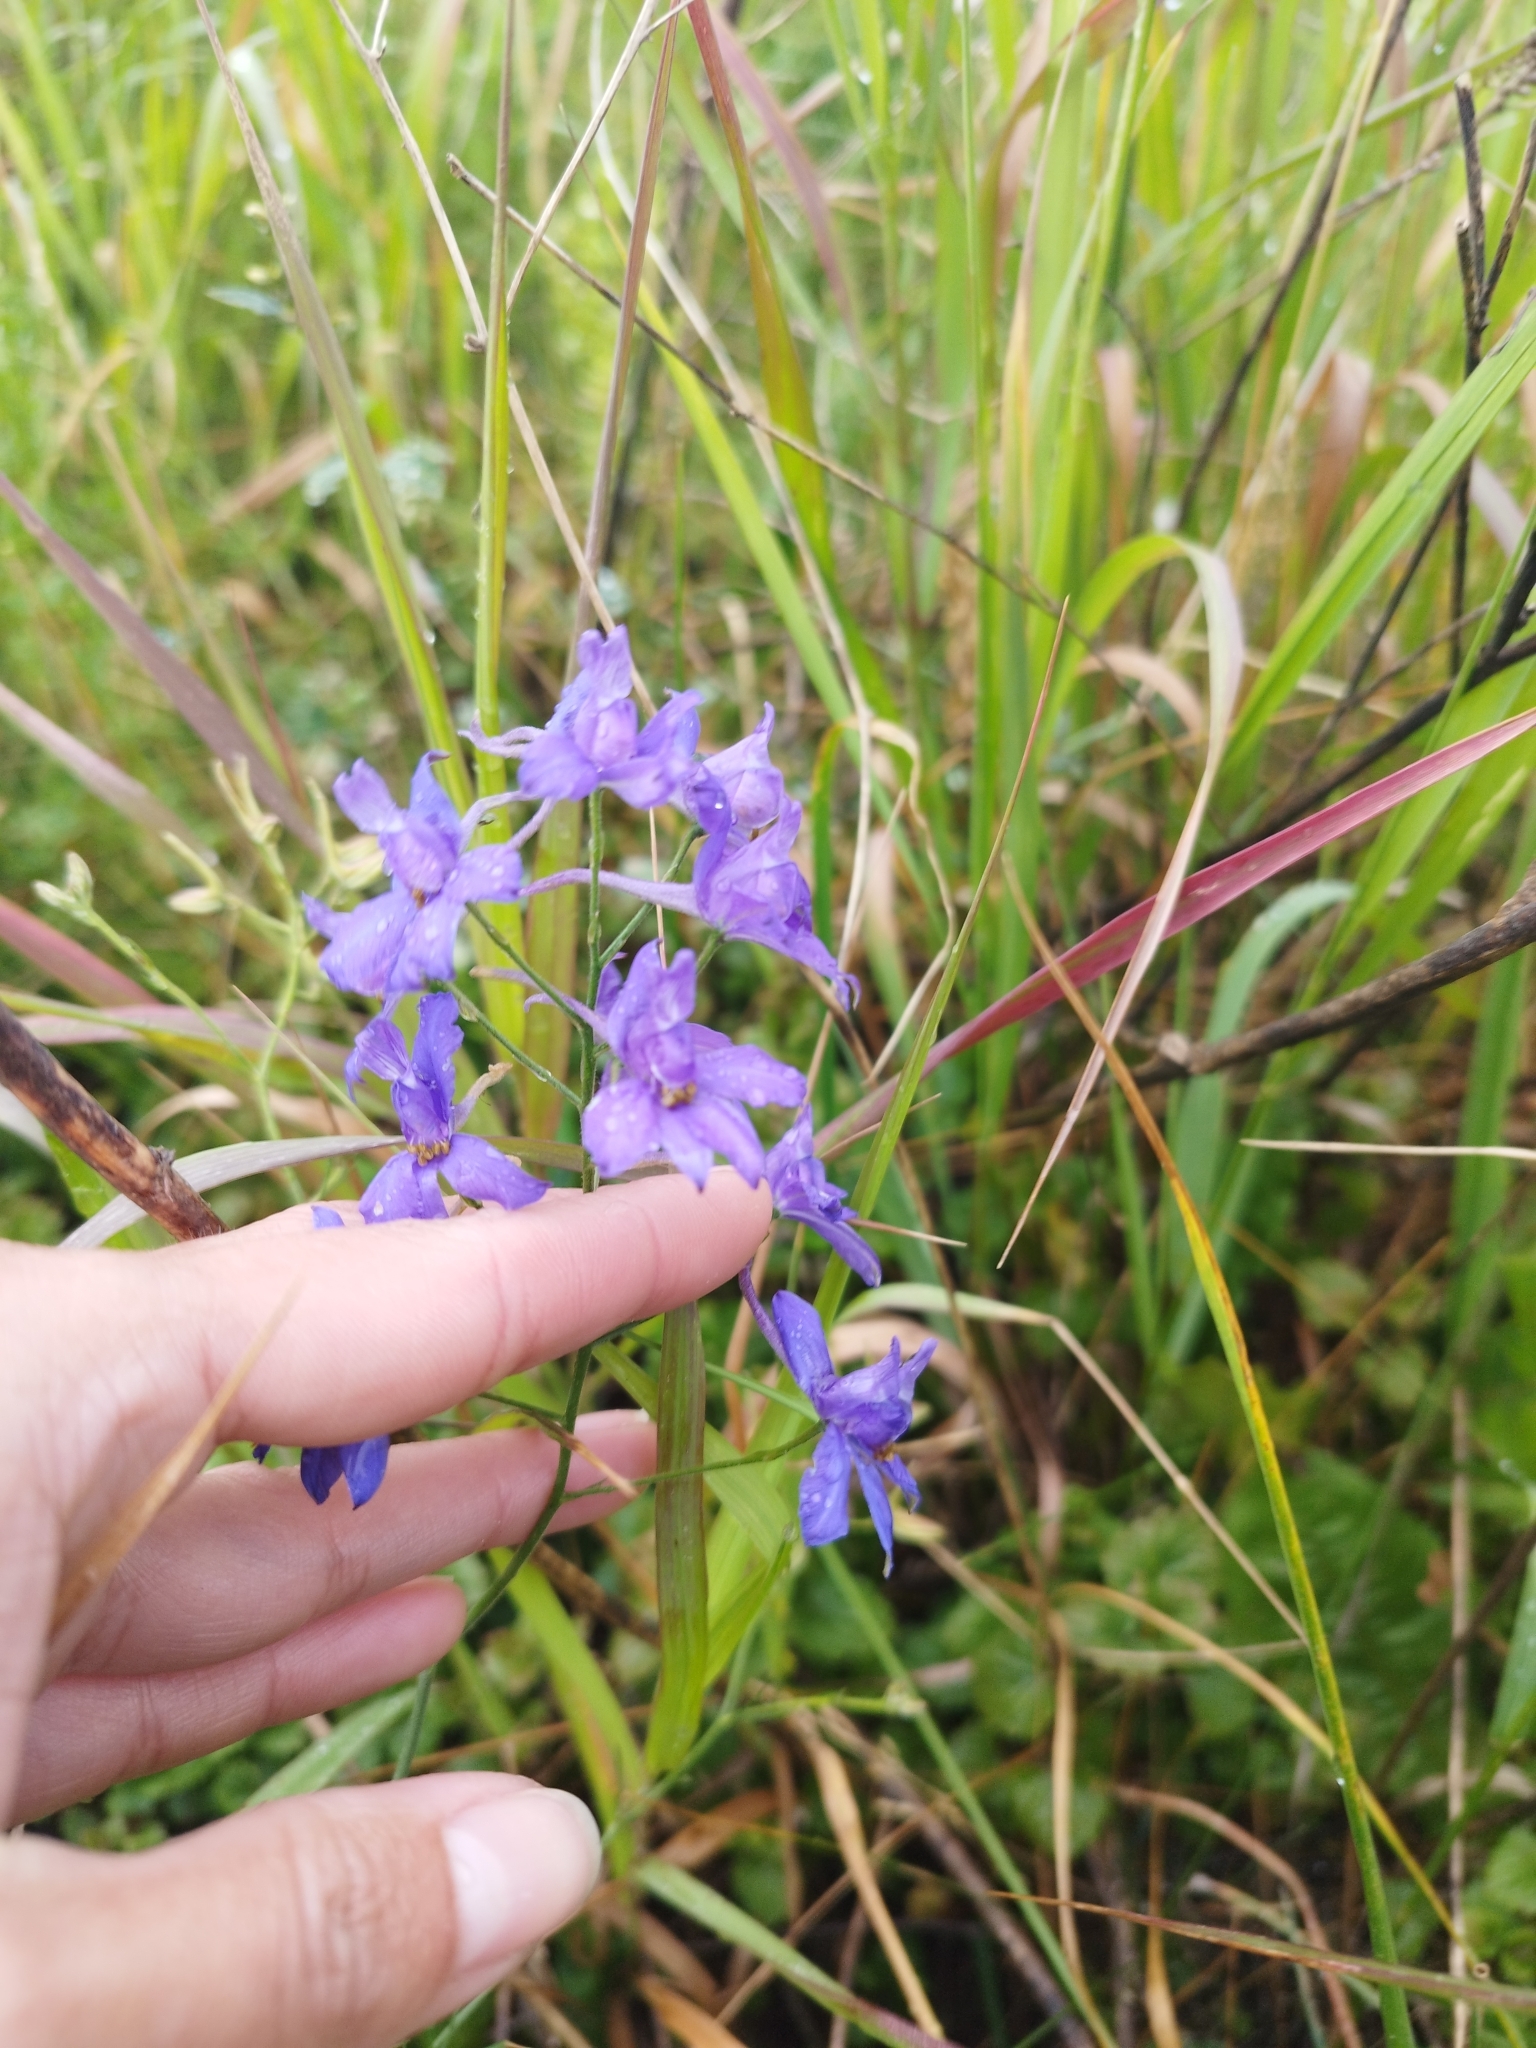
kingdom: Plantae
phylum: Tracheophyta
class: Magnoliopsida
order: Ranunculales
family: Ranunculaceae
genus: Delphinium
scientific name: Delphinium consolida
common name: Branching larkspur
